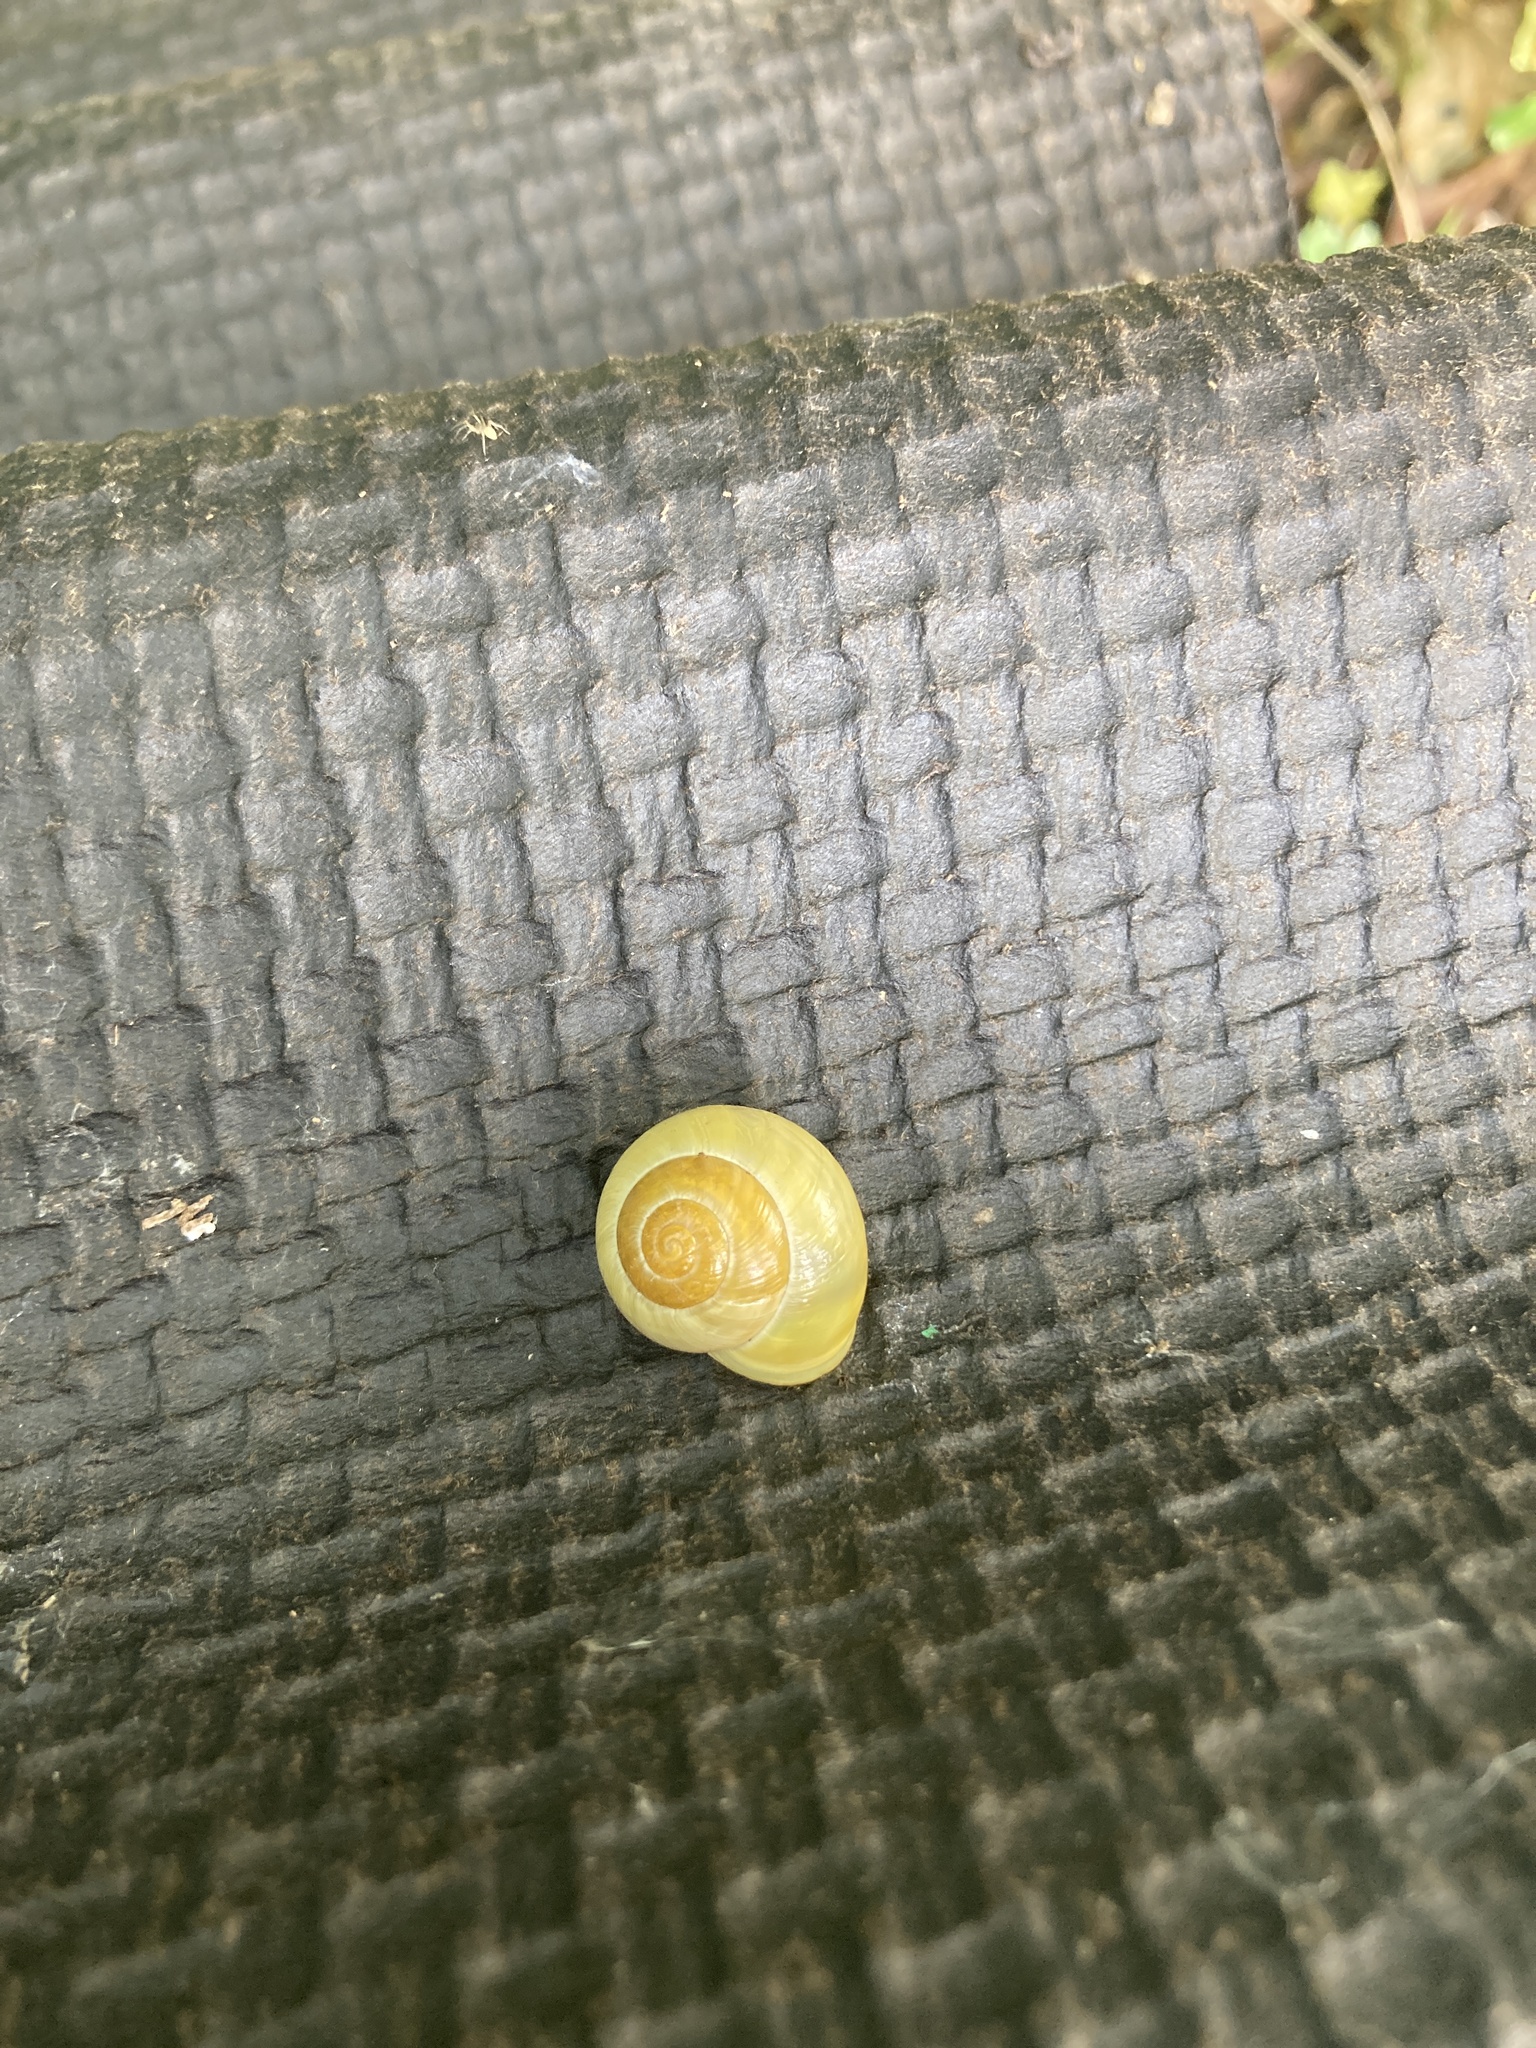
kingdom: Animalia
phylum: Mollusca
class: Gastropoda
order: Stylommatophora
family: Helicidae
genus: Cepaea
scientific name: Cepaea hortensis
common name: White-lip gardensnail
